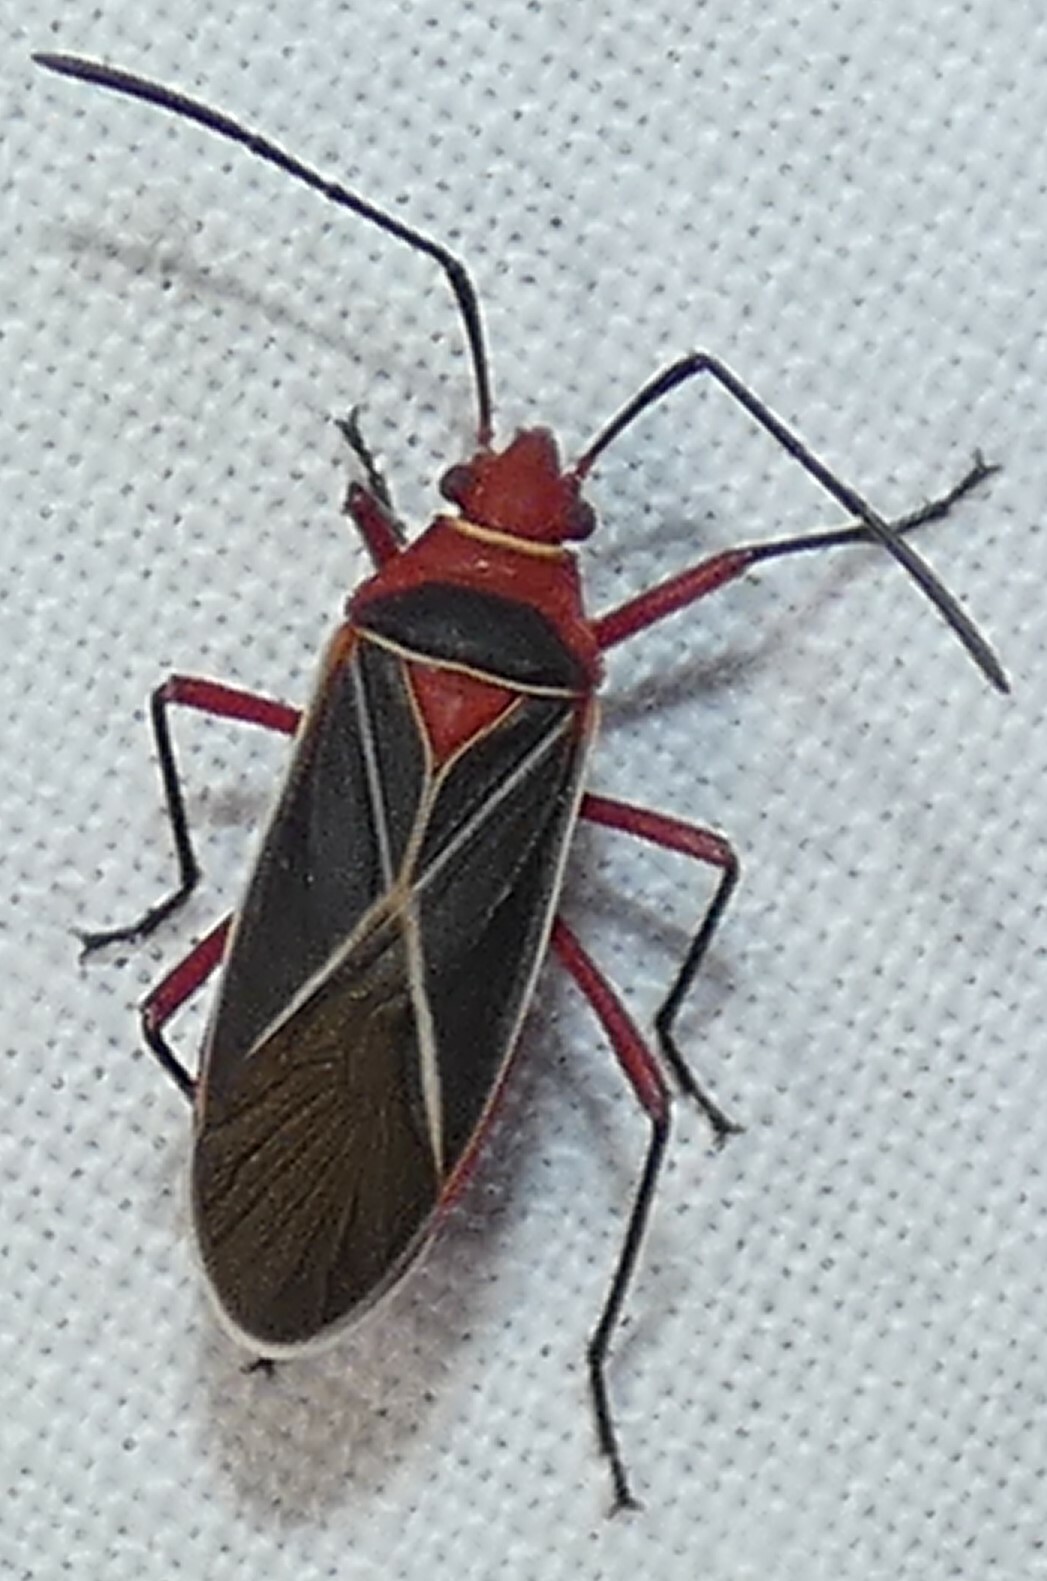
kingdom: Animalia
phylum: Arthropoda
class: Insecta
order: Hemiptera
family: Pyrrhocoridae
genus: Dysdercus
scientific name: Dysdercus suturellus
